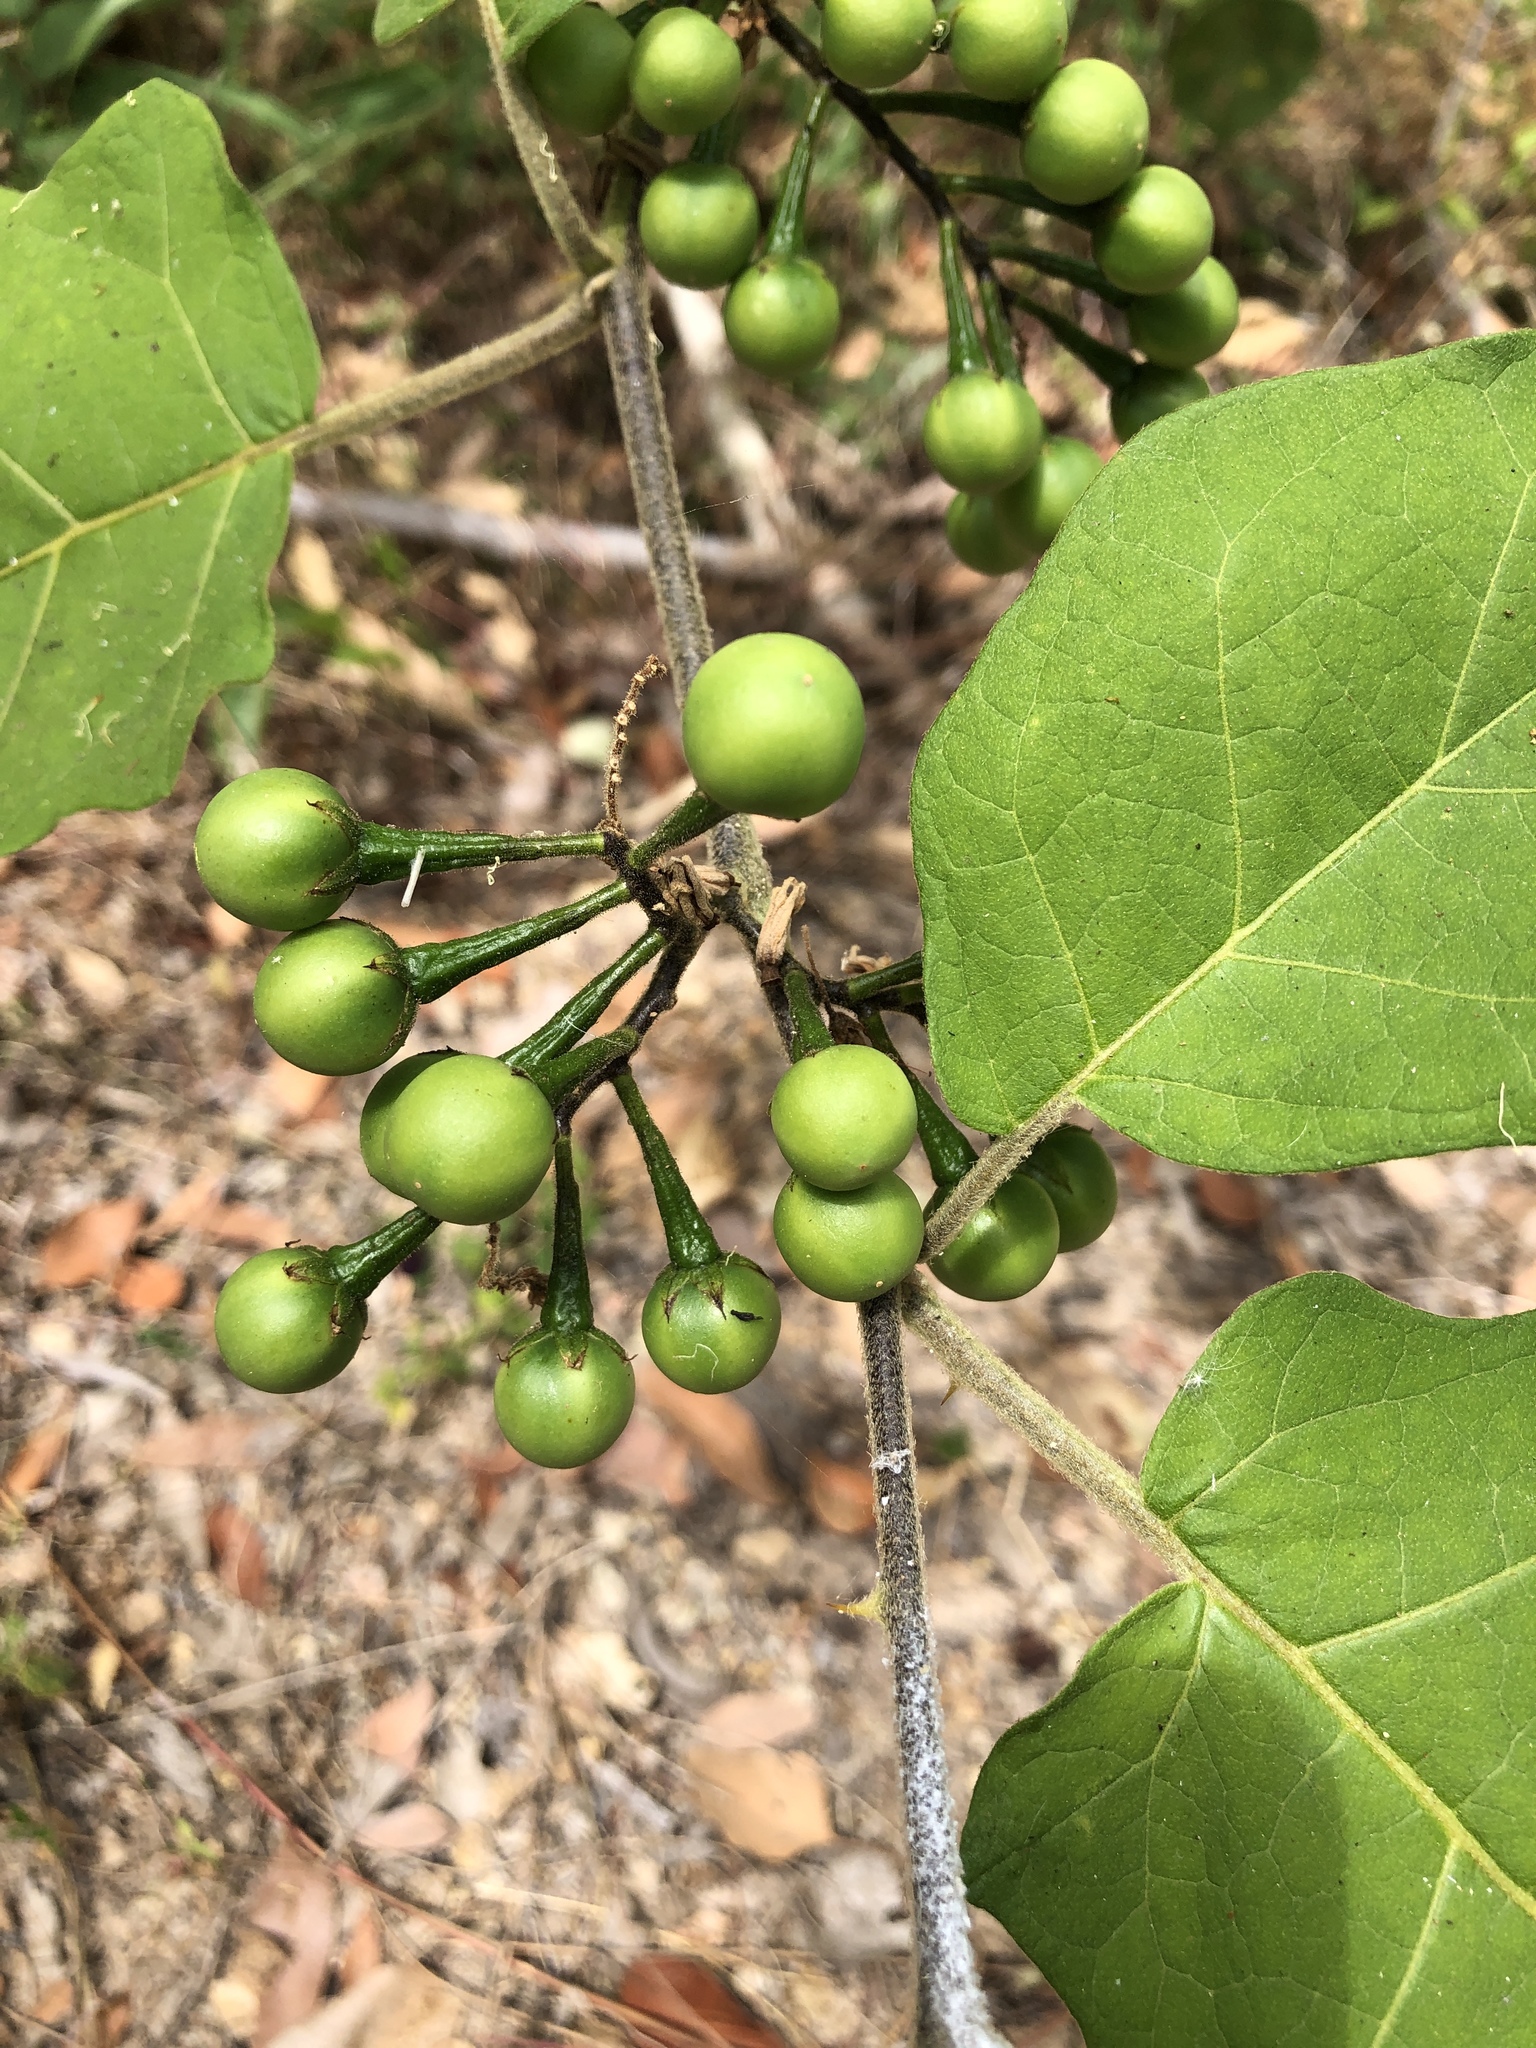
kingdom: Plantae
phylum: Tracheophyta
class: Magnoliopsida
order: Solanales
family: Solanaceae
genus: Solanum
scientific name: Solanum torvum
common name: Turkey berry
